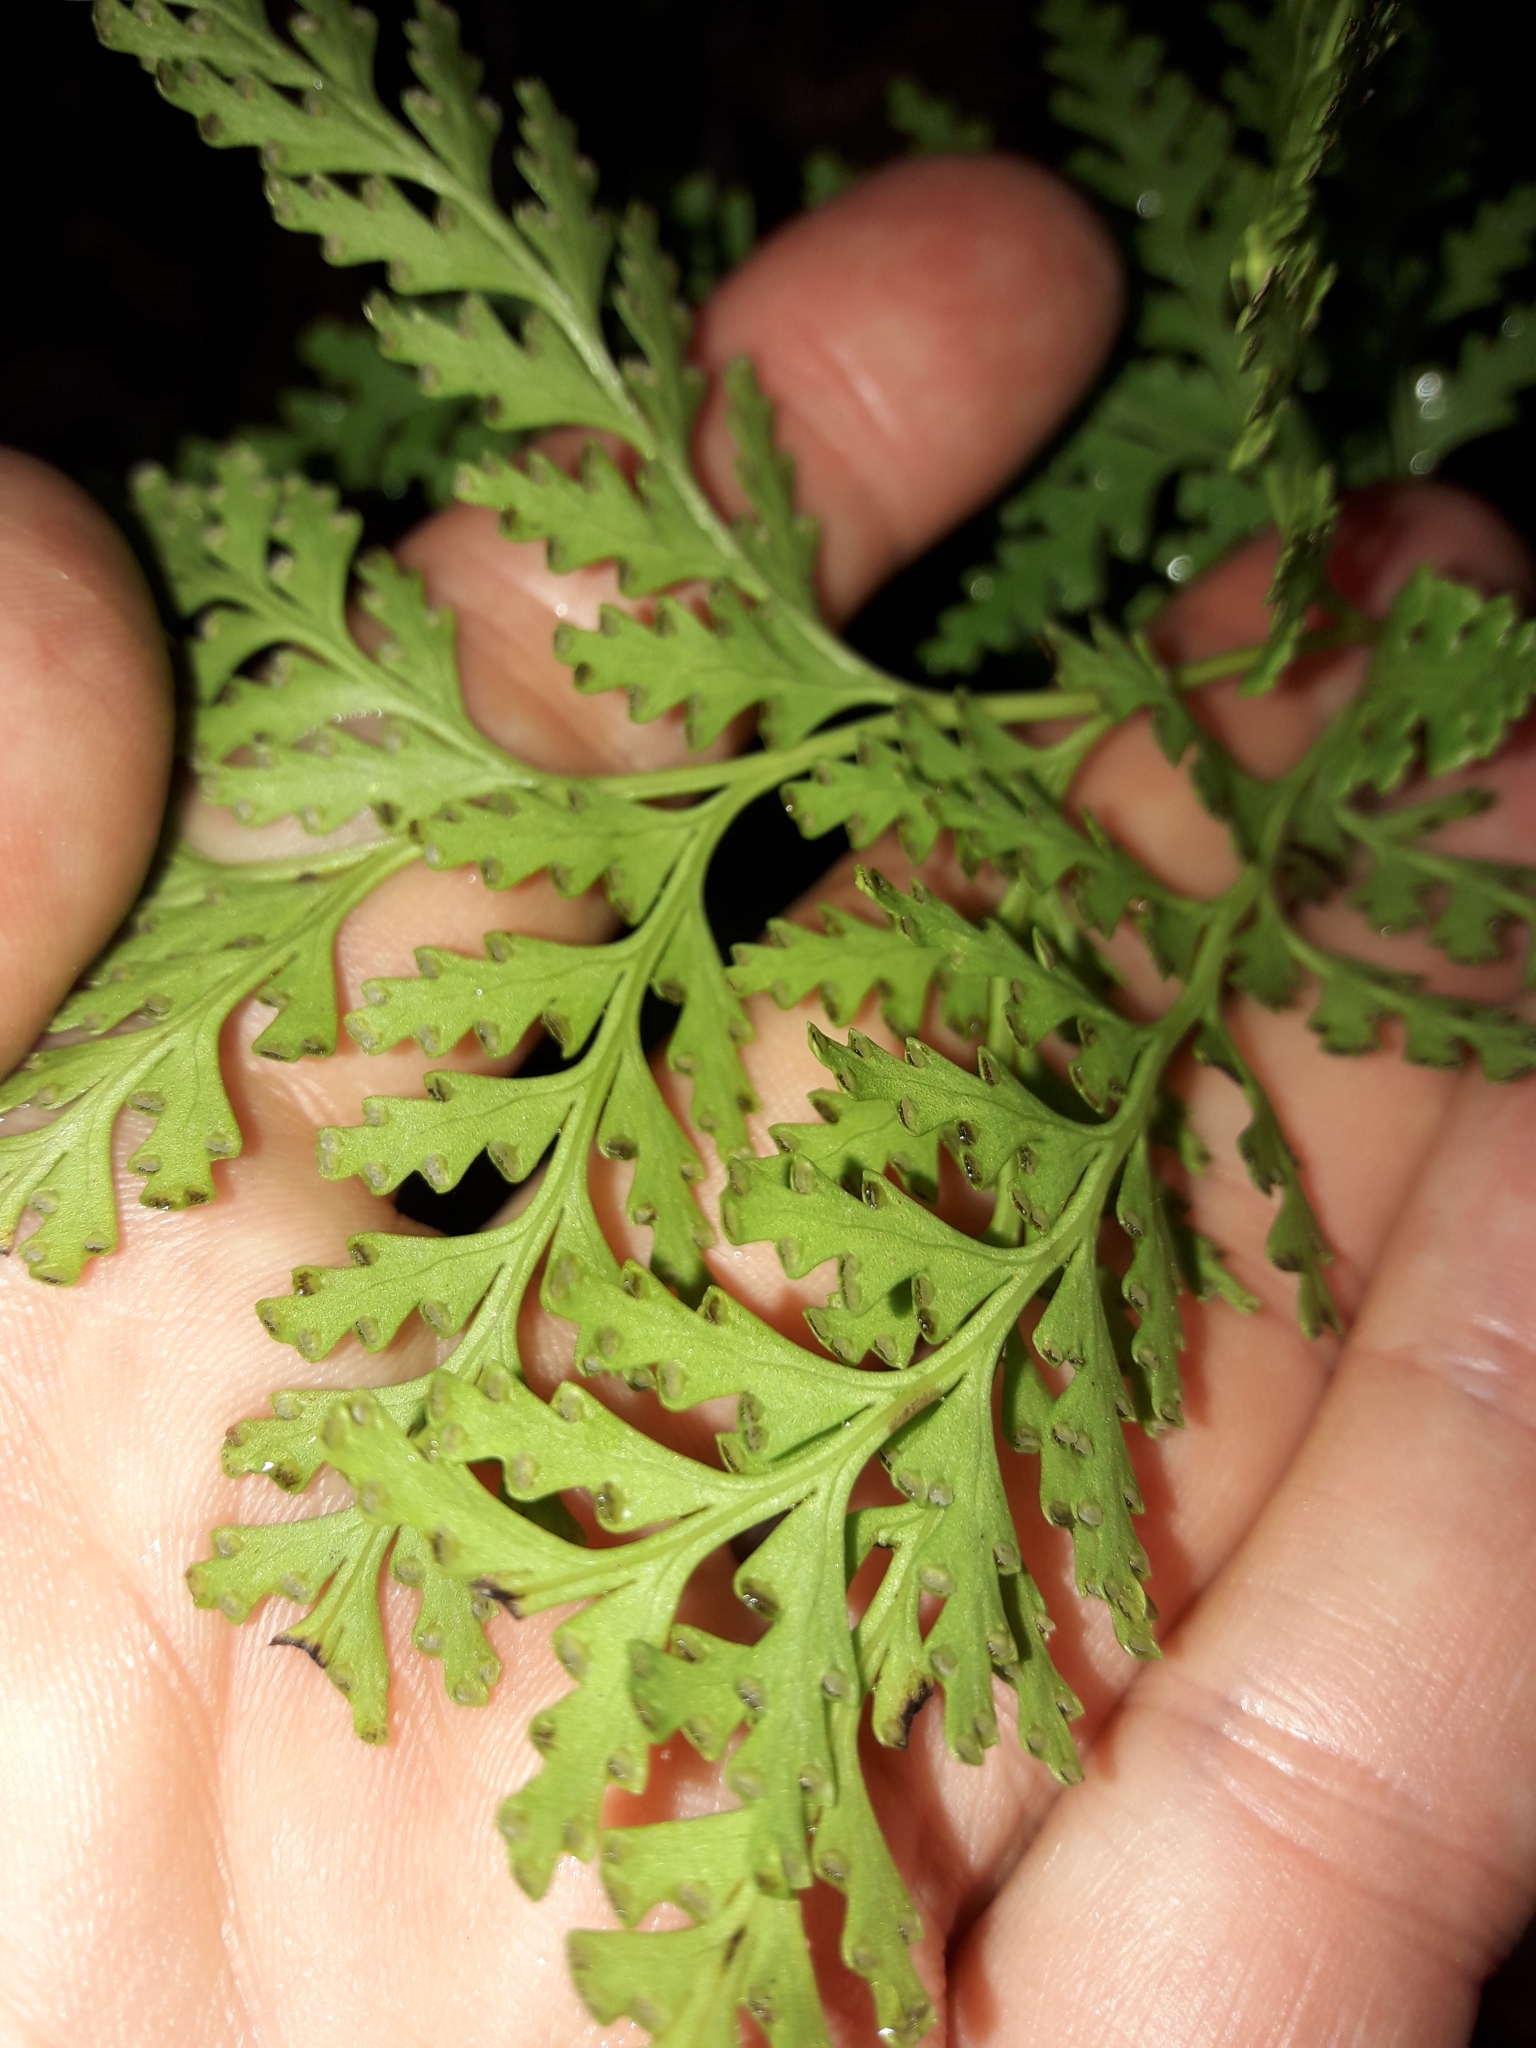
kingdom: Plantae
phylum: Tracheophyta
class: Polypodiopsida
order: Polypodiales
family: Lindsaeaceae
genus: Tapeinidium
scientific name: Tapeinidium moorei
